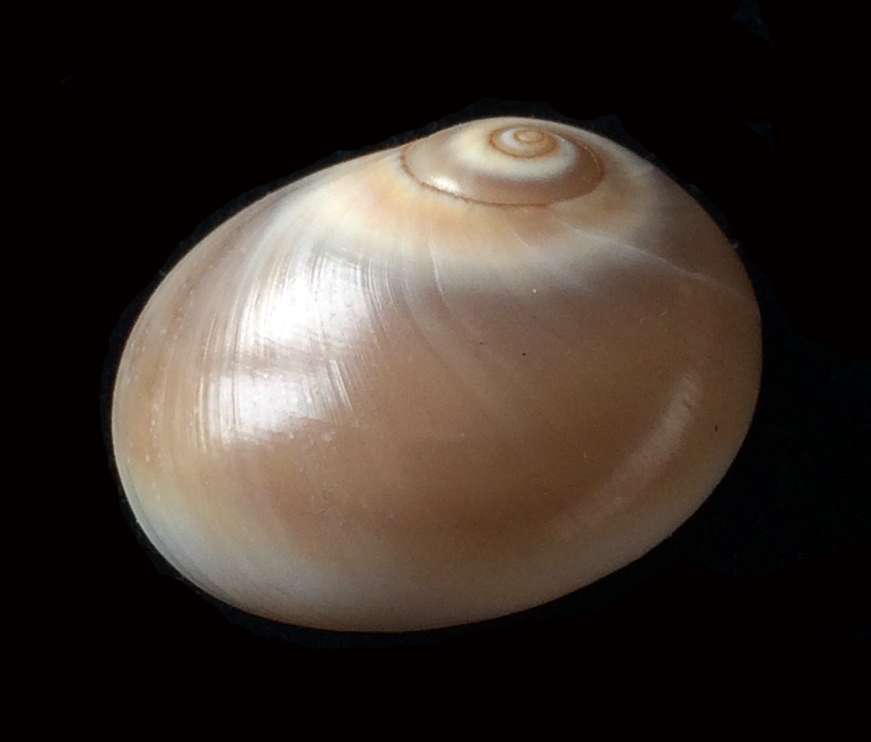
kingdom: Animalia
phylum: Mollusca
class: Gastropoda
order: Littorinimorpha
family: Naticidae
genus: Neverita
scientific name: Neverita josephinia
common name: Josephine's moonsnail
